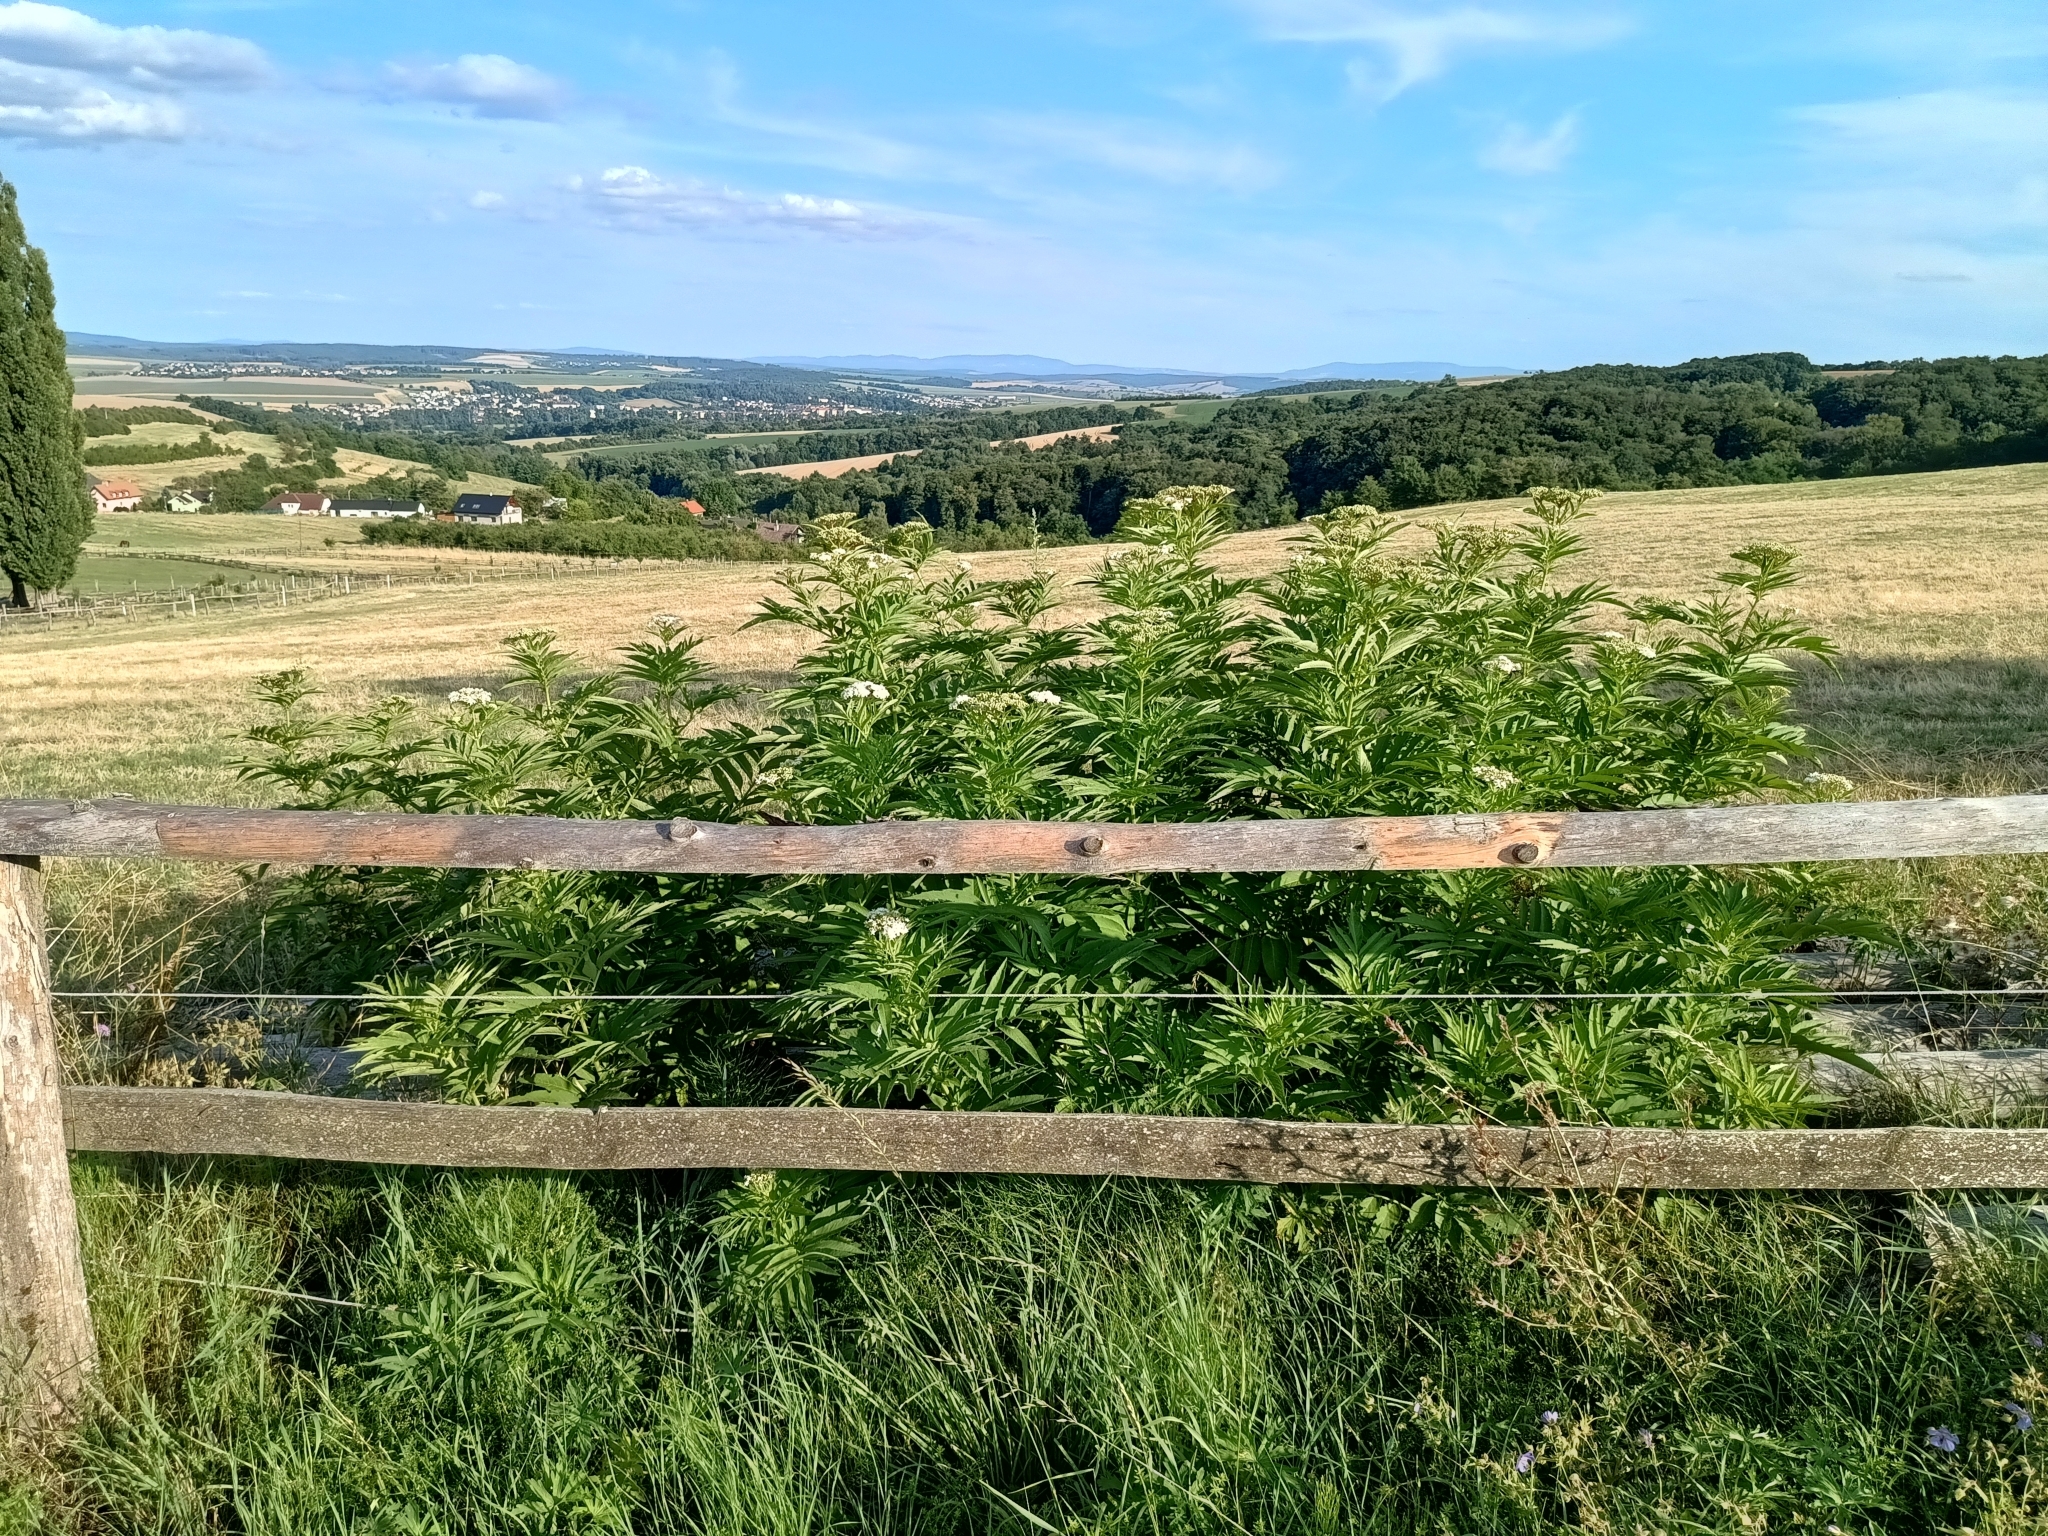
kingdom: Plantae
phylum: Tracheophyta
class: Magnoliopsida
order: Dipsacales
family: Viburnaceae
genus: Sambucus
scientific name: Sambucus ebulus
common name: Dwarf elder
